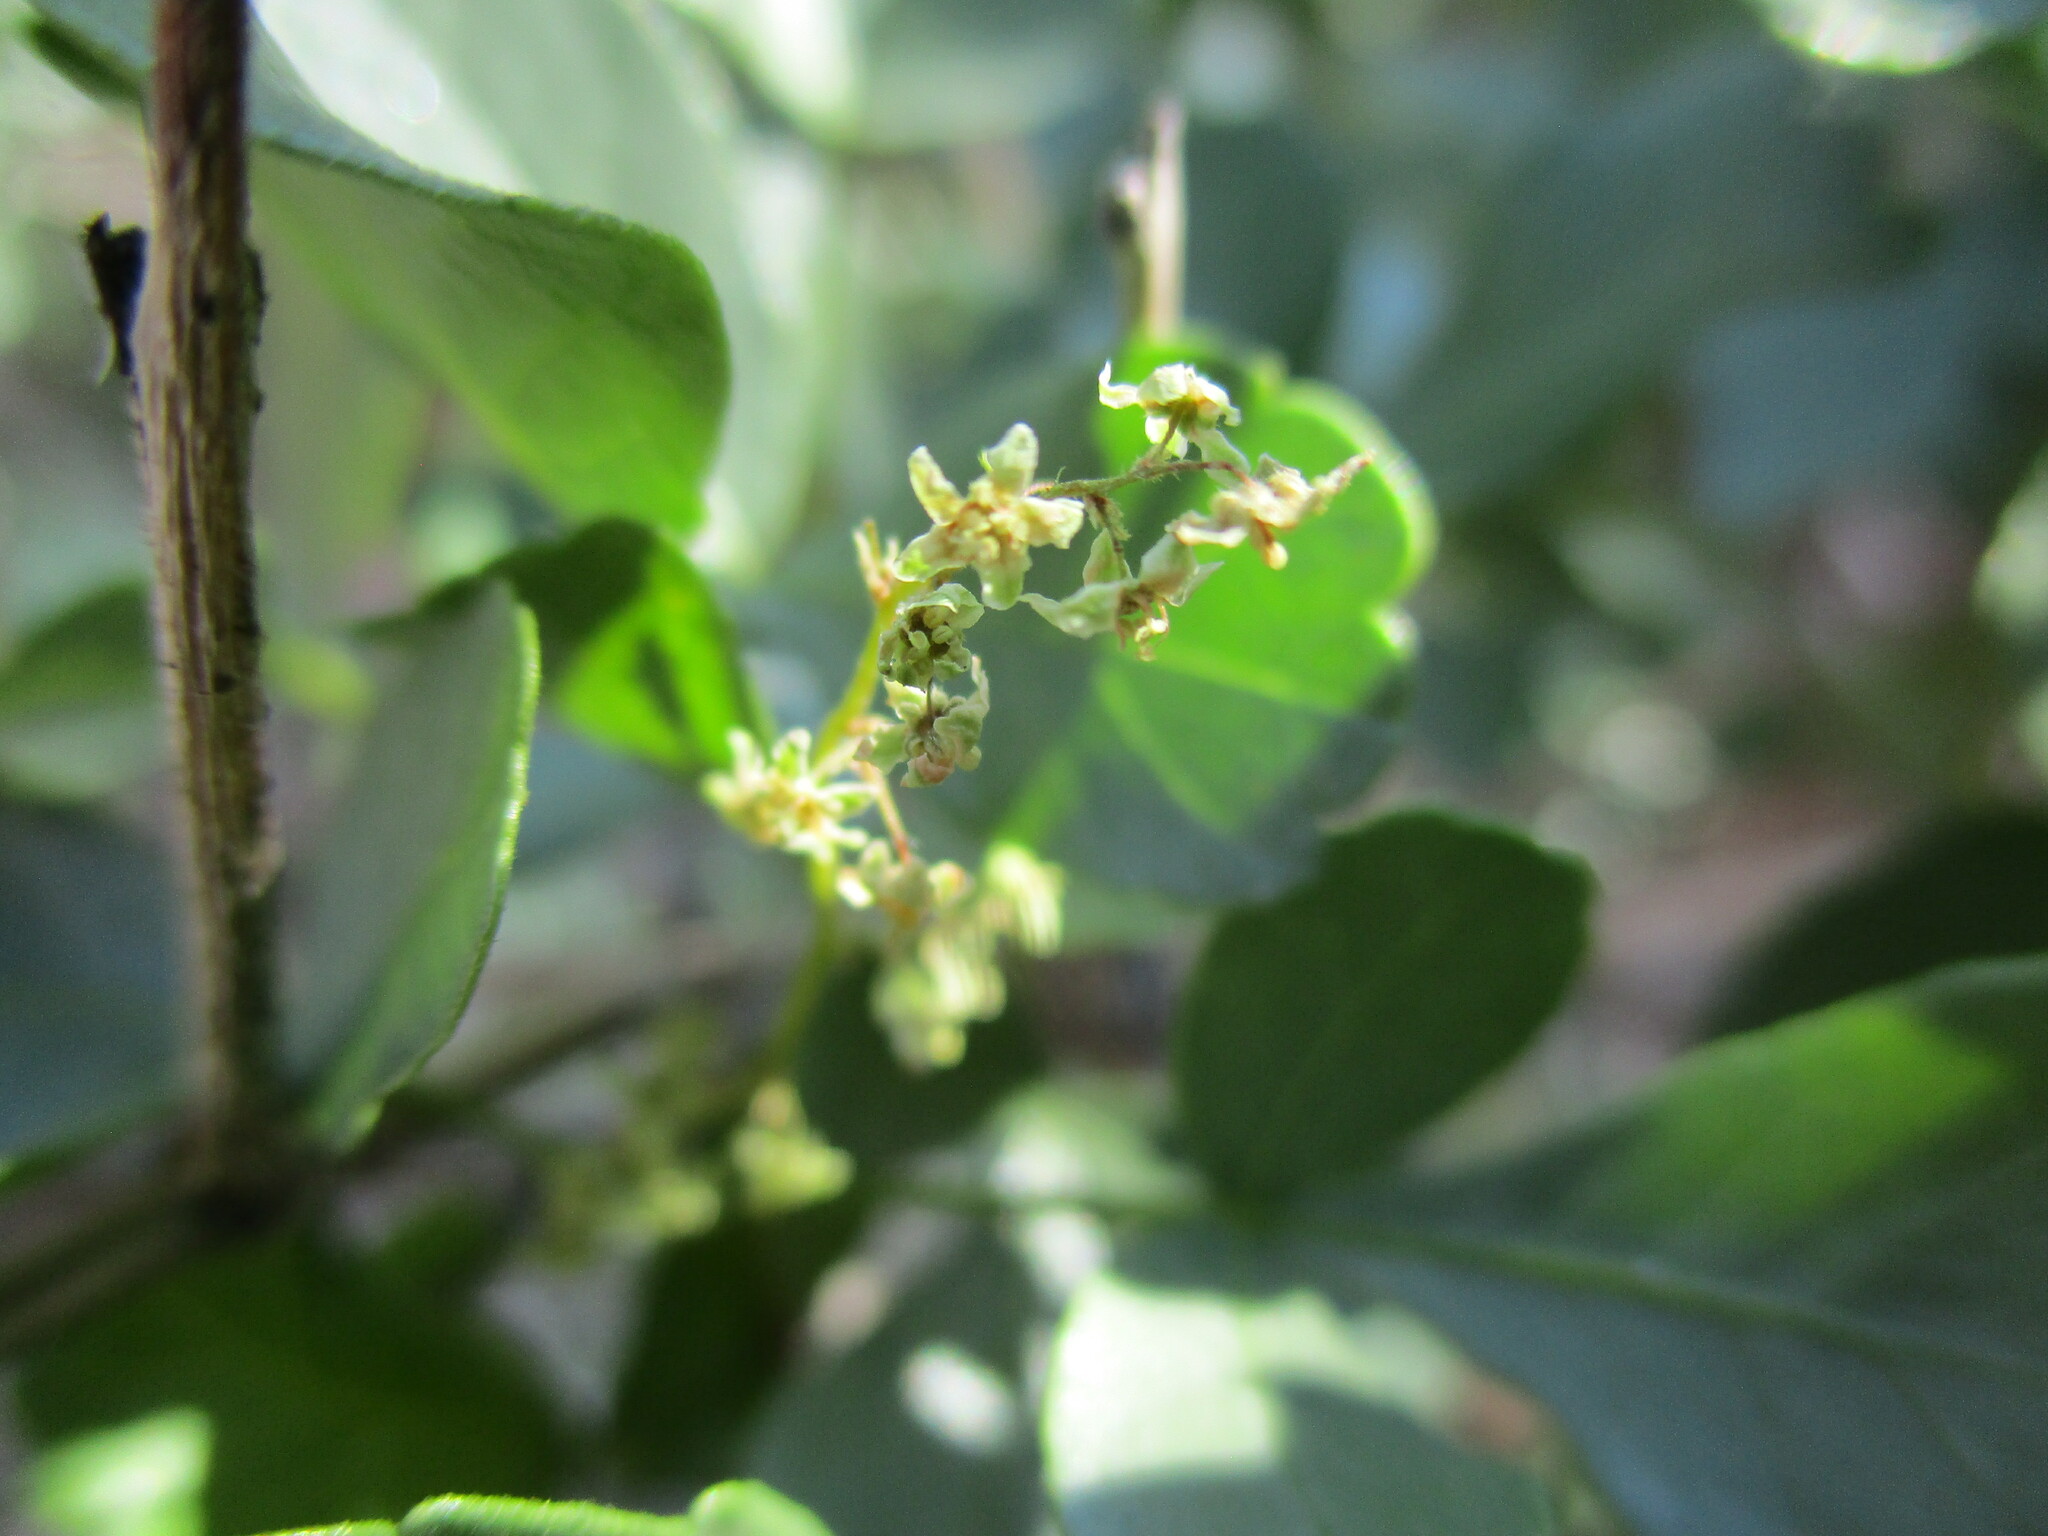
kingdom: Plantae
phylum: Tracheophyta
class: Magnoliopsida
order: Sapindales
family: Anacardiaceae
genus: Searsia
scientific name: Searsia marlothii
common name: Bitter karee
